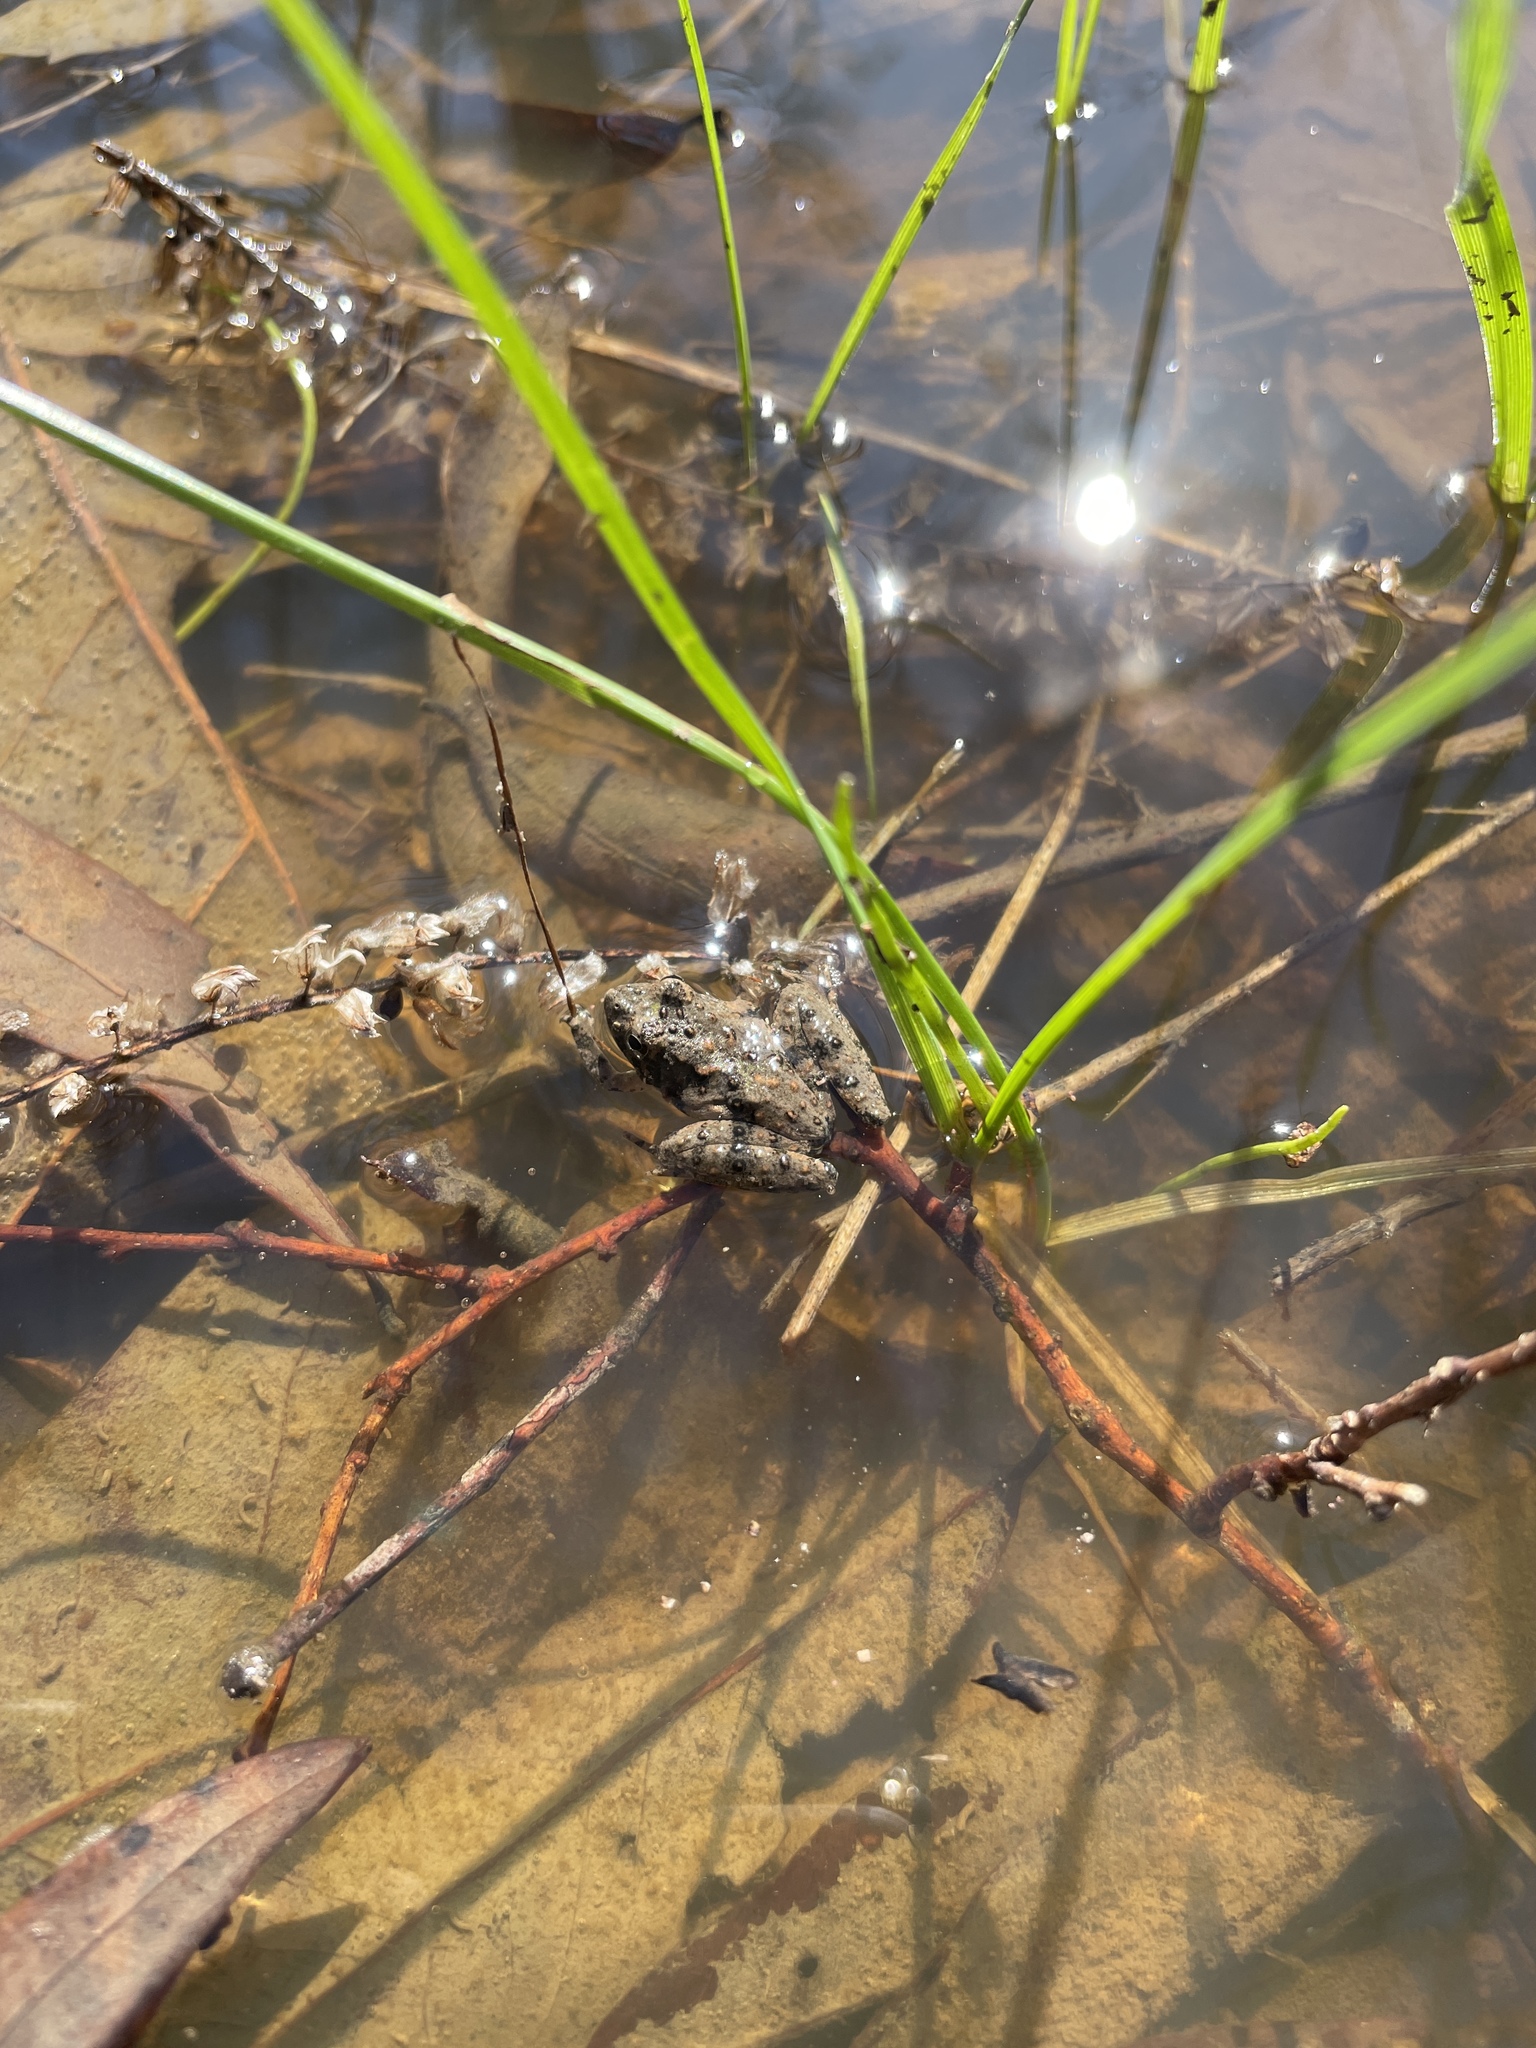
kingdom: Animalia
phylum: Chordata
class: Amphibia
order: Anura
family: Hylidae
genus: Acris
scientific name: Acris blanchardi
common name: Blanchard's cricket frog
